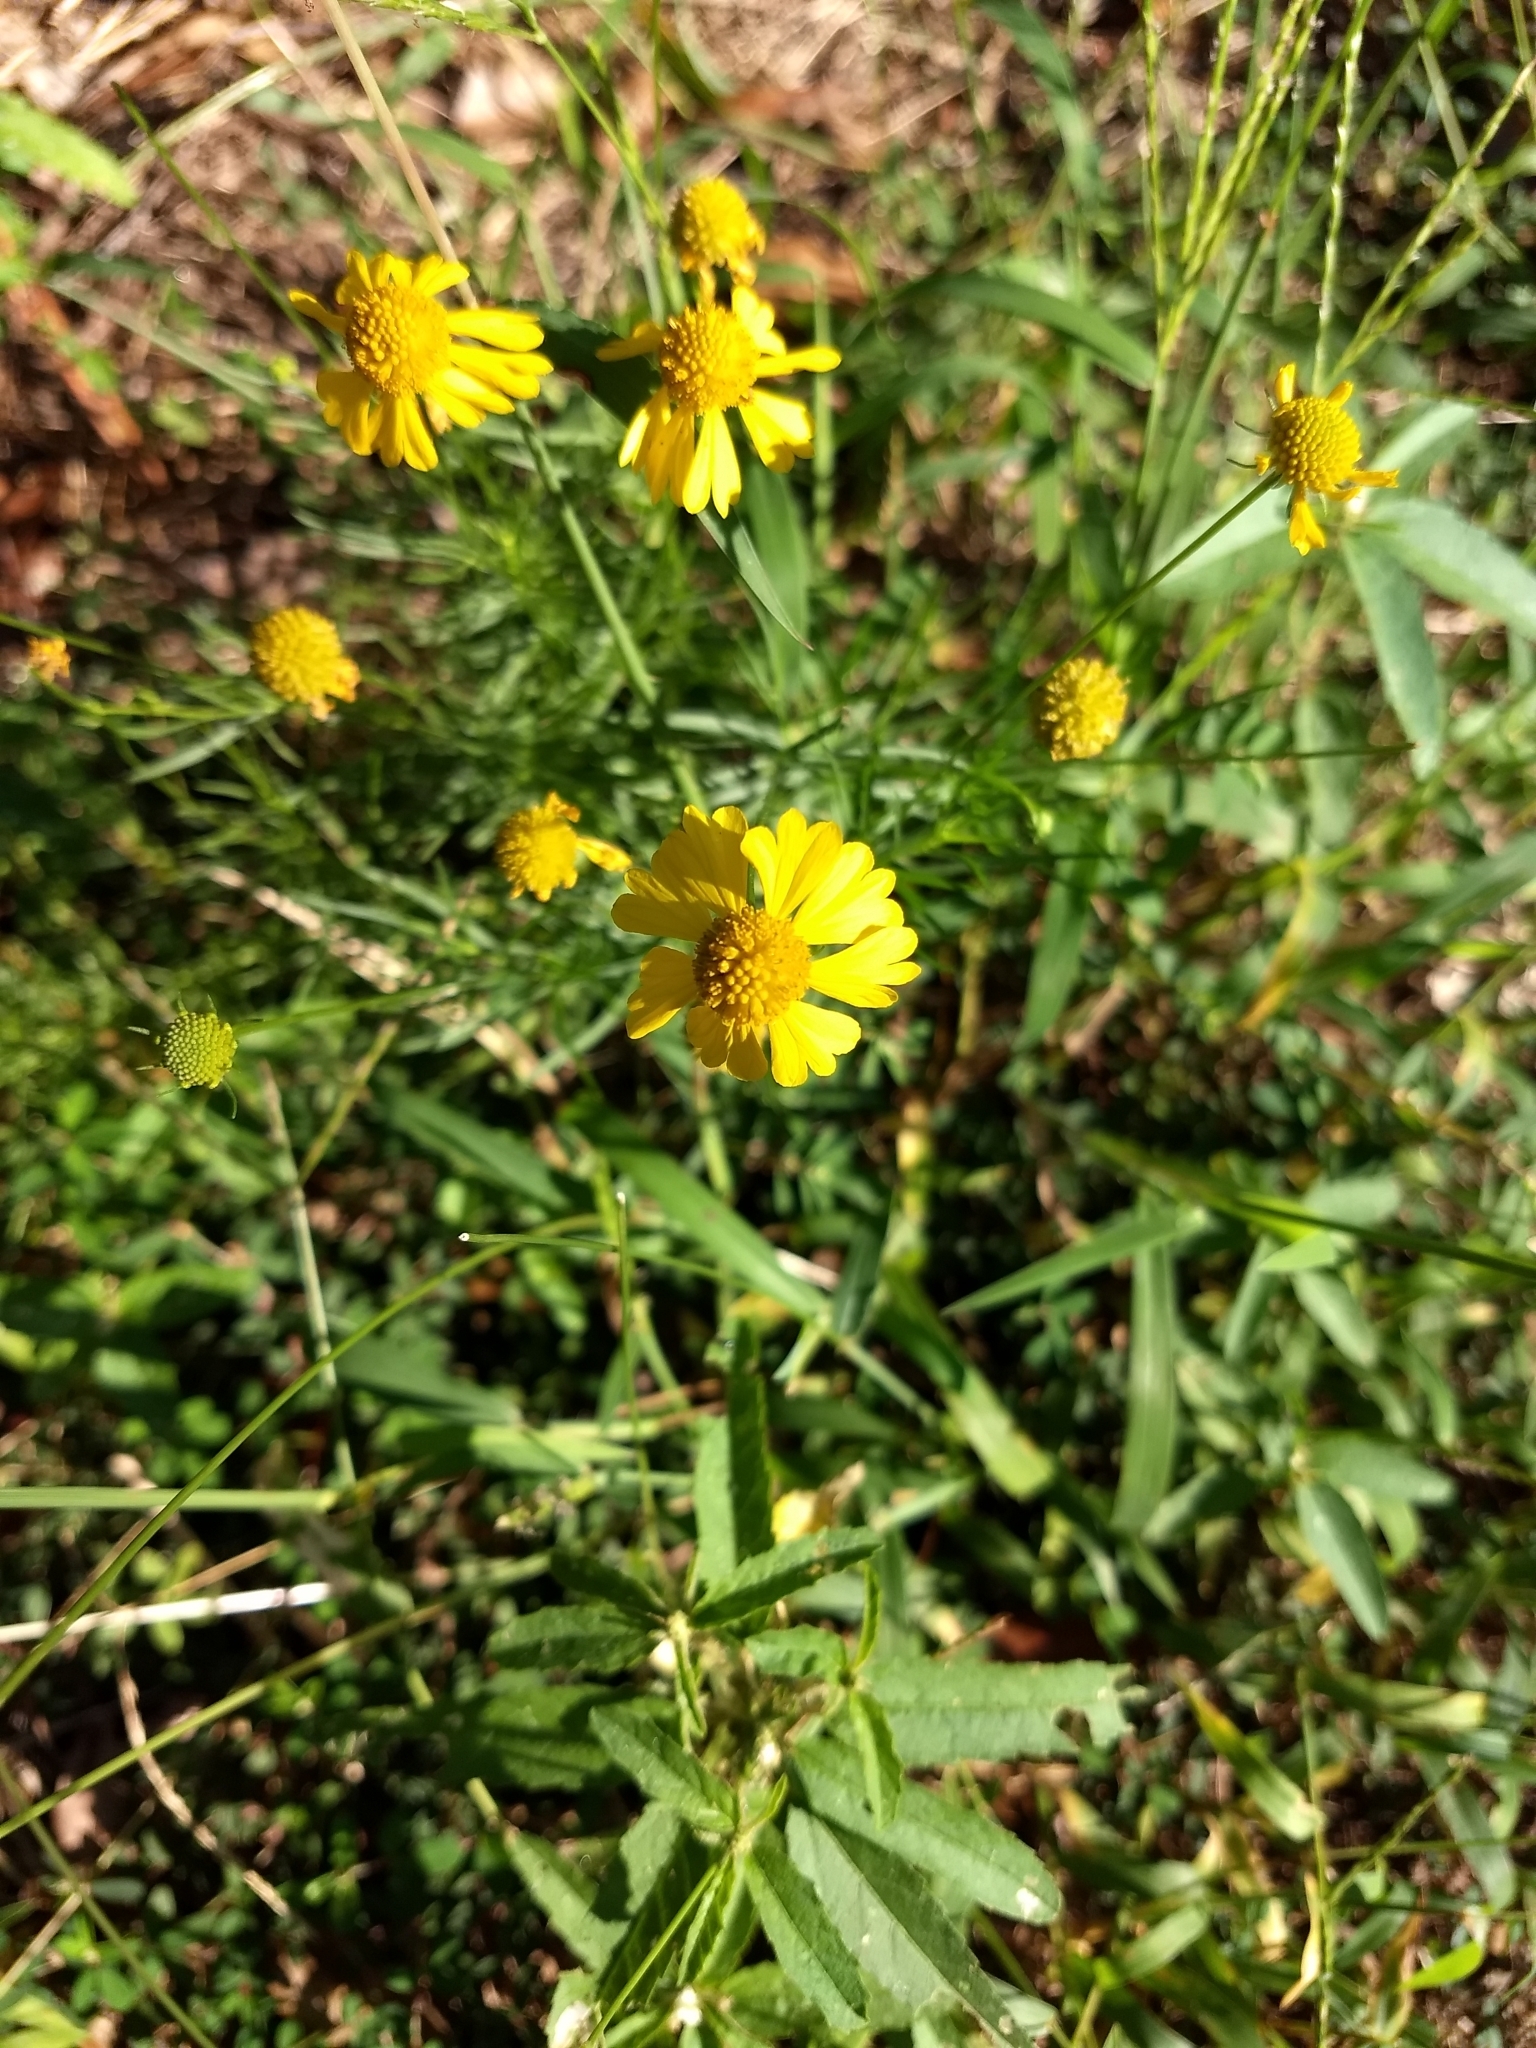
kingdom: Plantae
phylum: Tracheophyta
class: Magnoliopsida
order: Asterales
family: Asteraceae
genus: Helenium
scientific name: Helenium amarum
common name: Bitter sneezeweed
